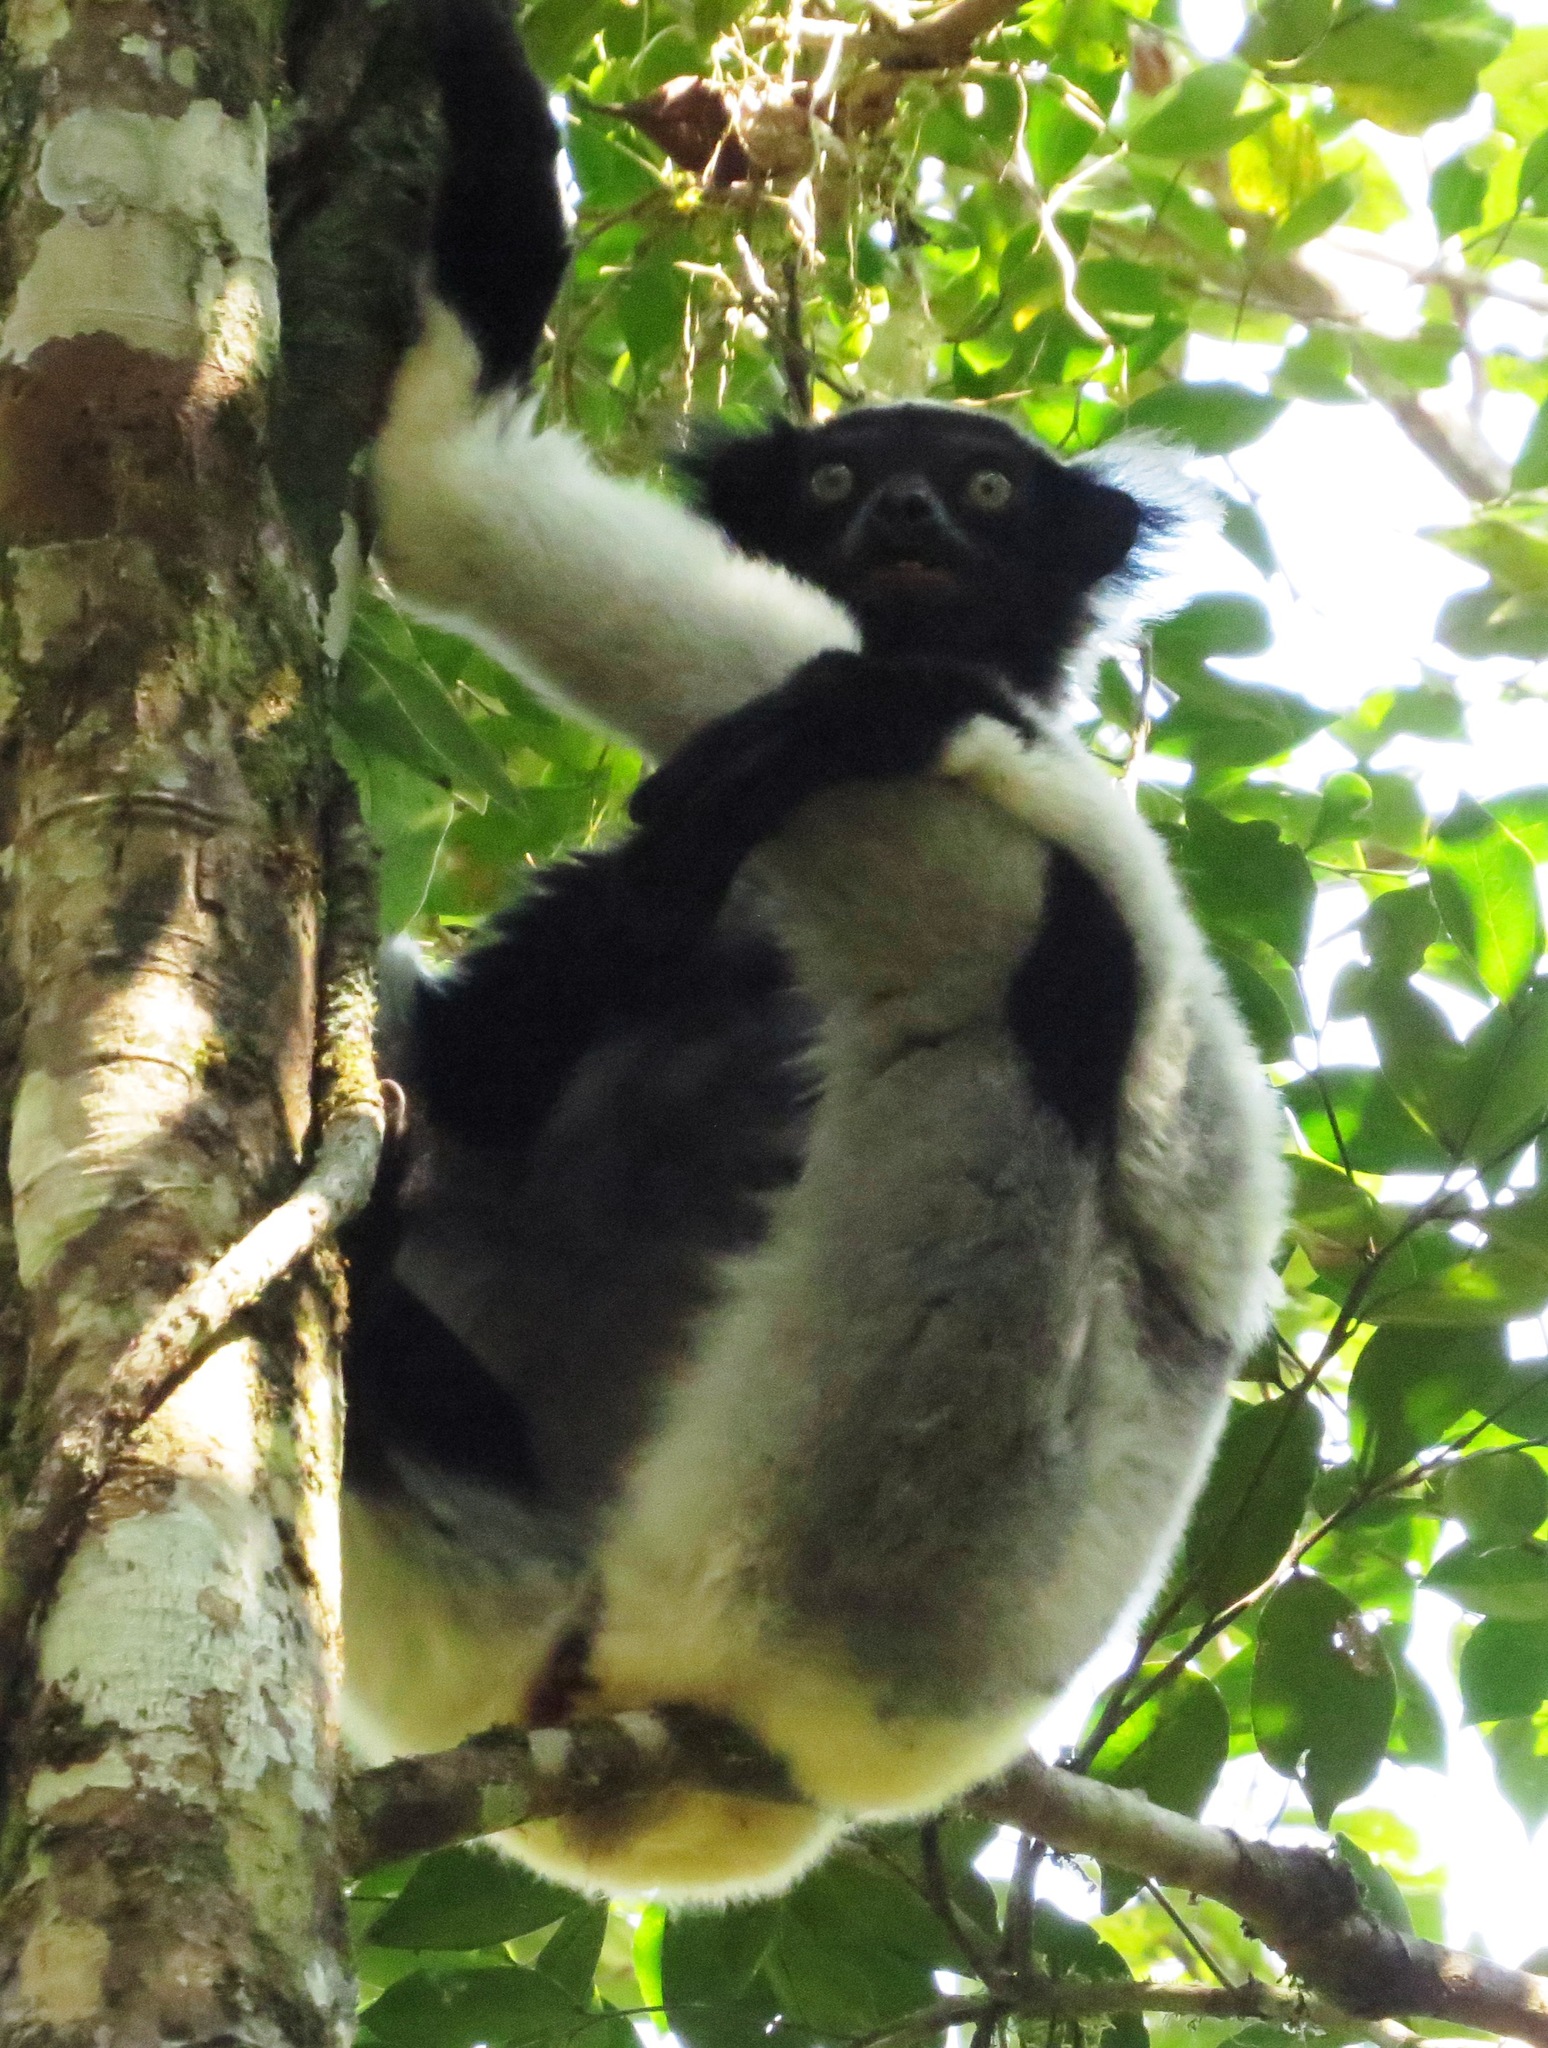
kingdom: Animalia
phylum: Chordata
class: Mammalia
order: Primates
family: Indriidae
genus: Indri
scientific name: Indri indri
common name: Indri
